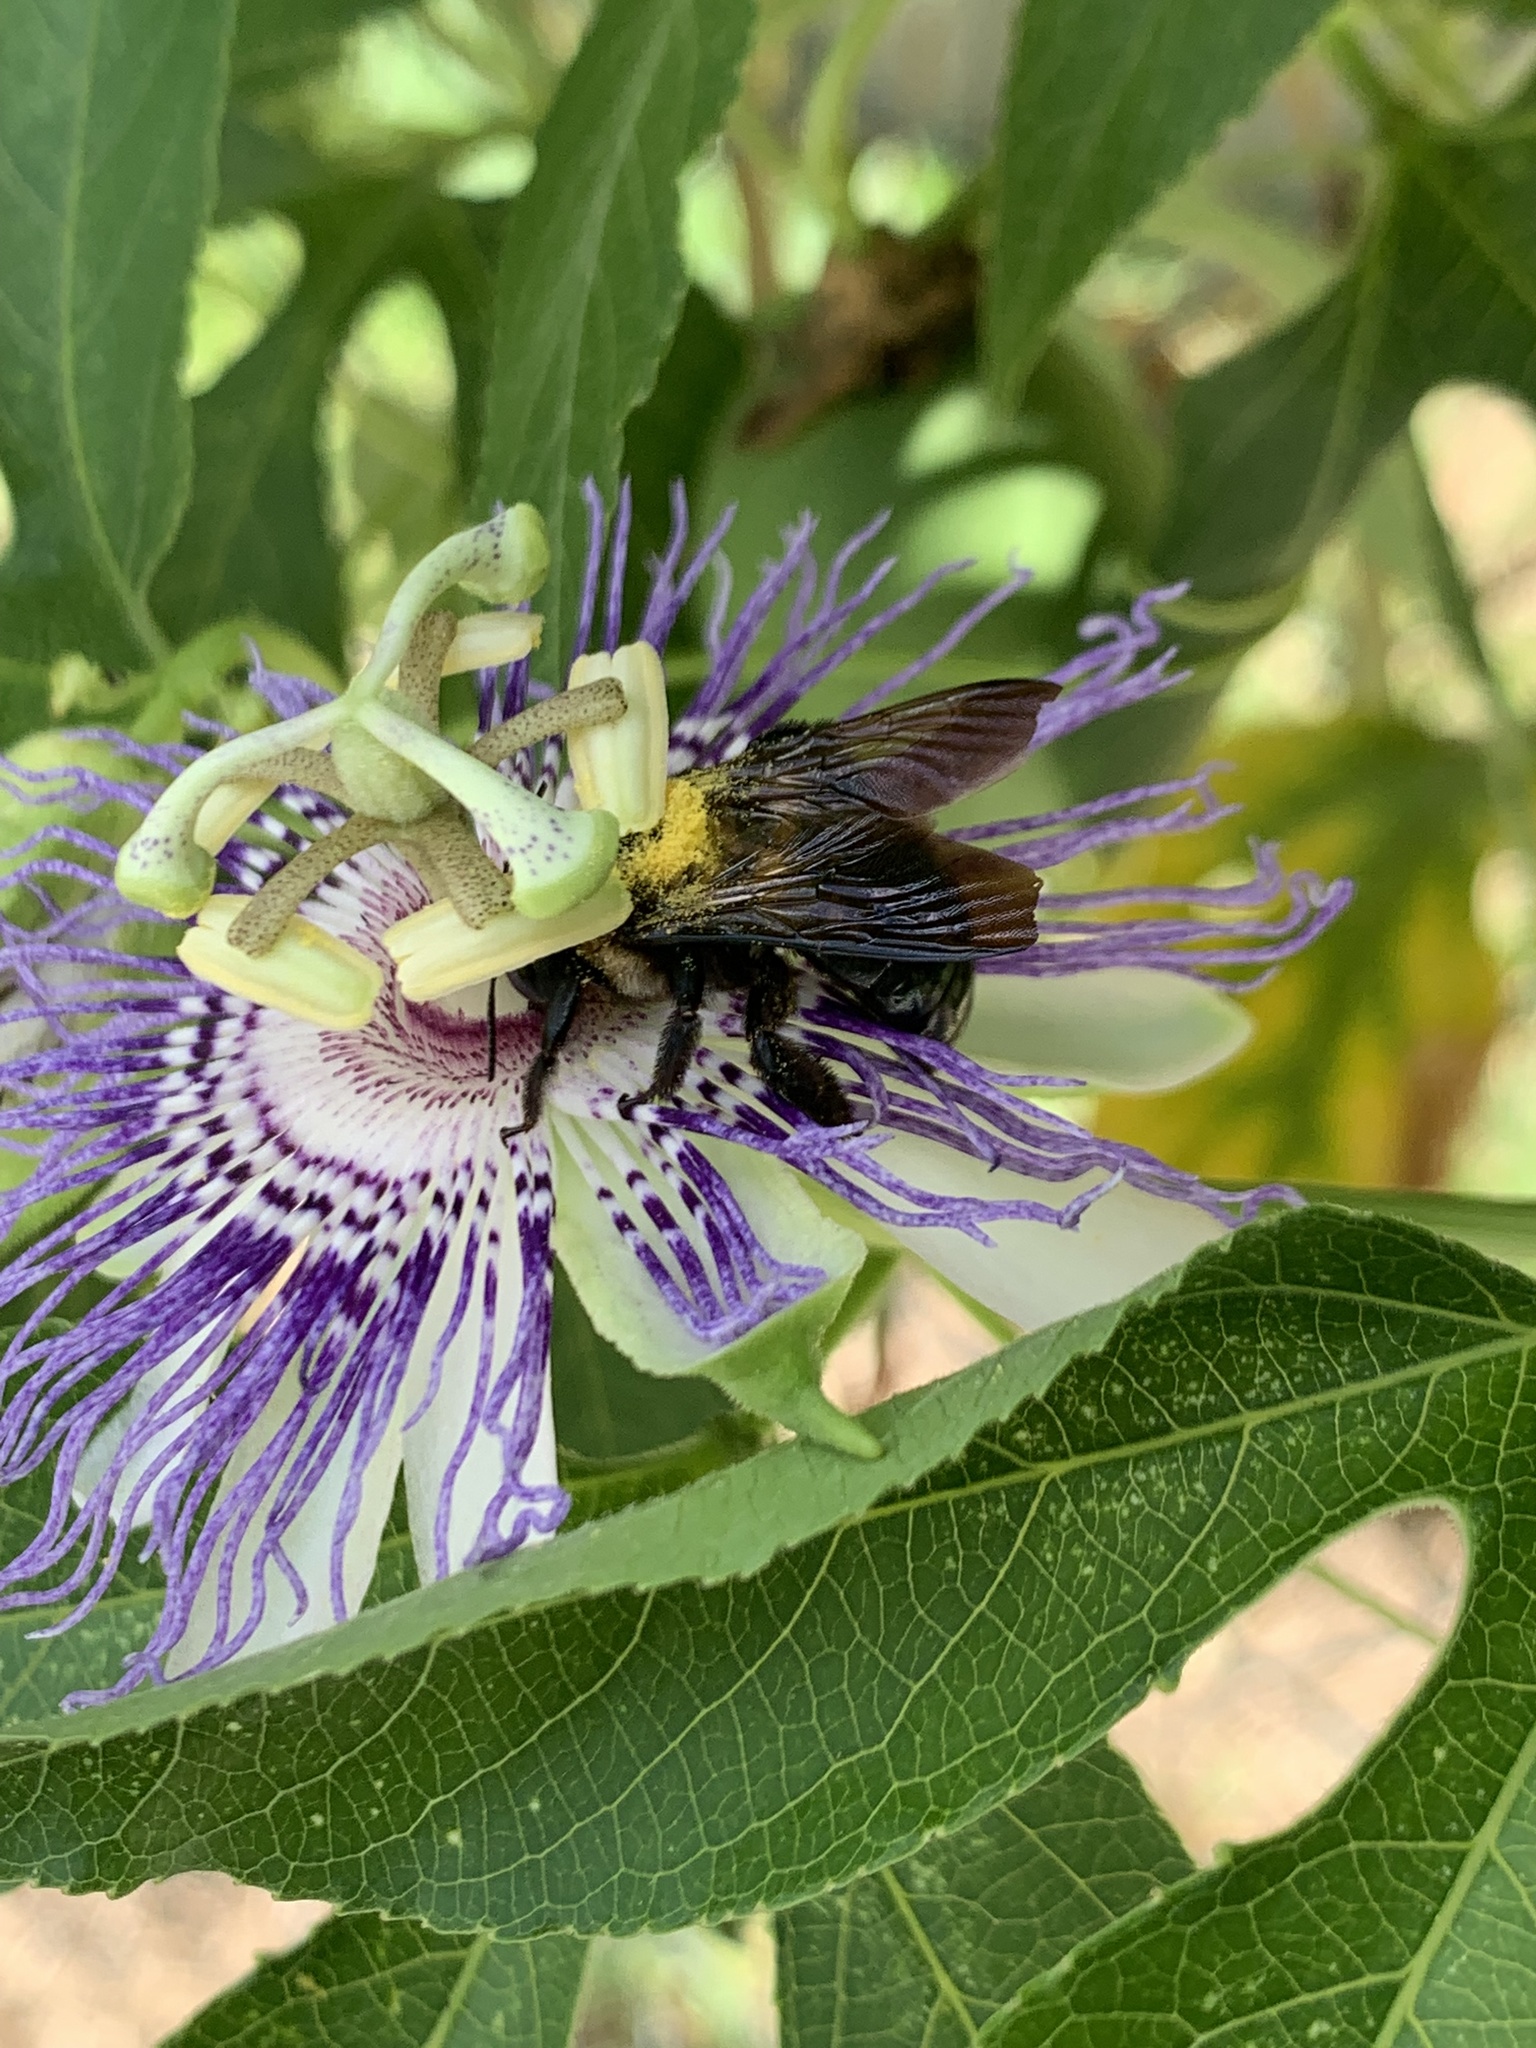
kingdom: Animalia
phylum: Arthropoda
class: Insecta
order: Hymenoptera
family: Apidae
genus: Xylocopa
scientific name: Xylocopa virginica
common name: Carpenter bee
